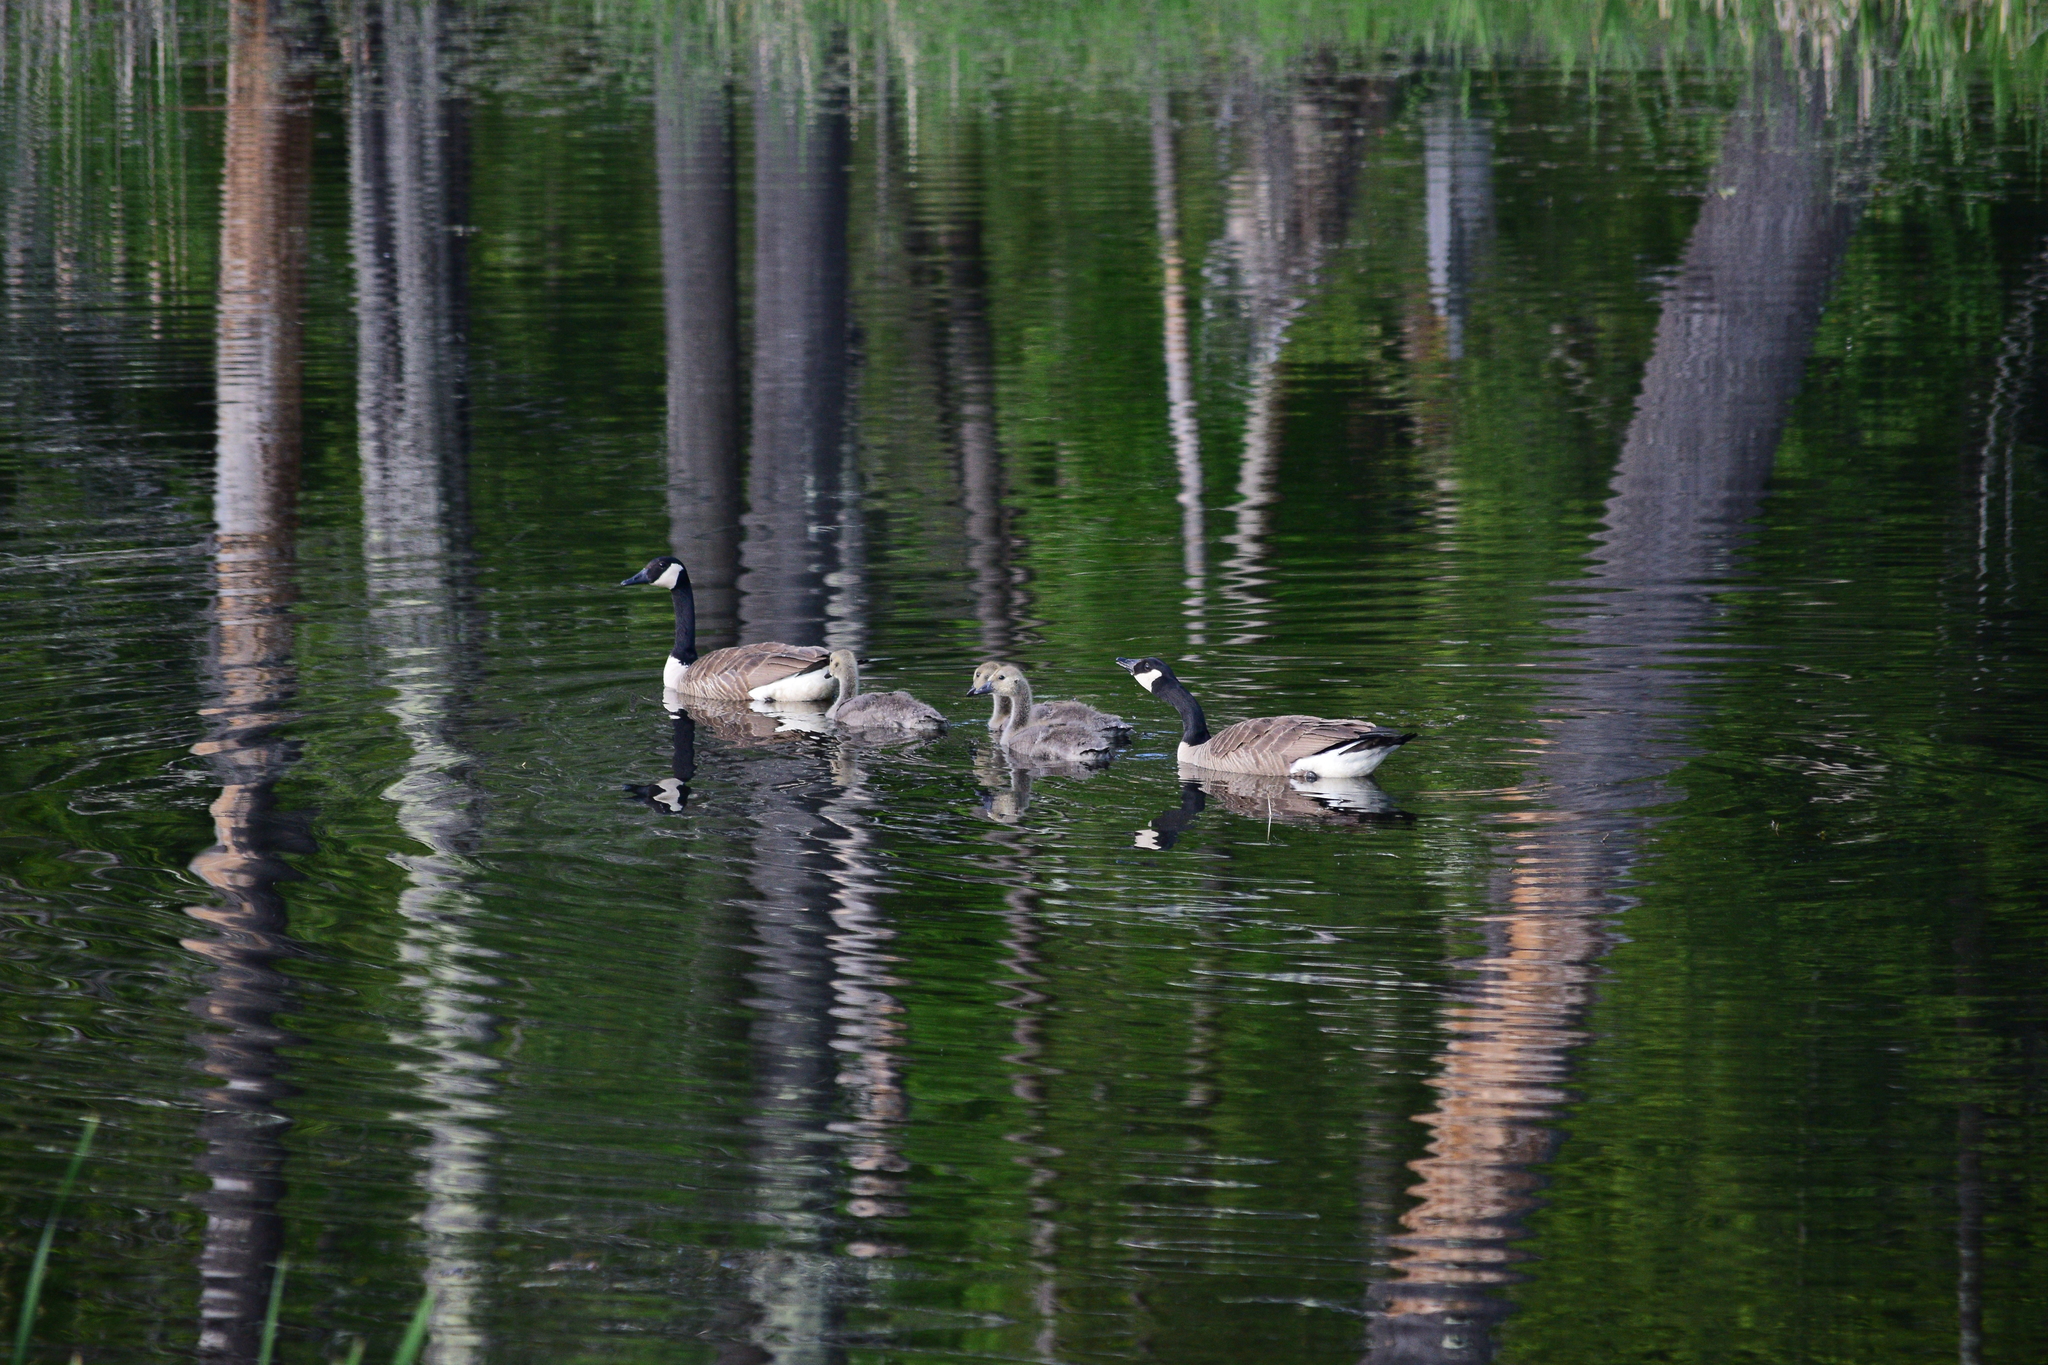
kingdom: Animalia
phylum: Chordata
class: Aves
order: Anseriformes
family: Anatidae
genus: Branta
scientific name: Branta canadensis
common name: Canada goose
